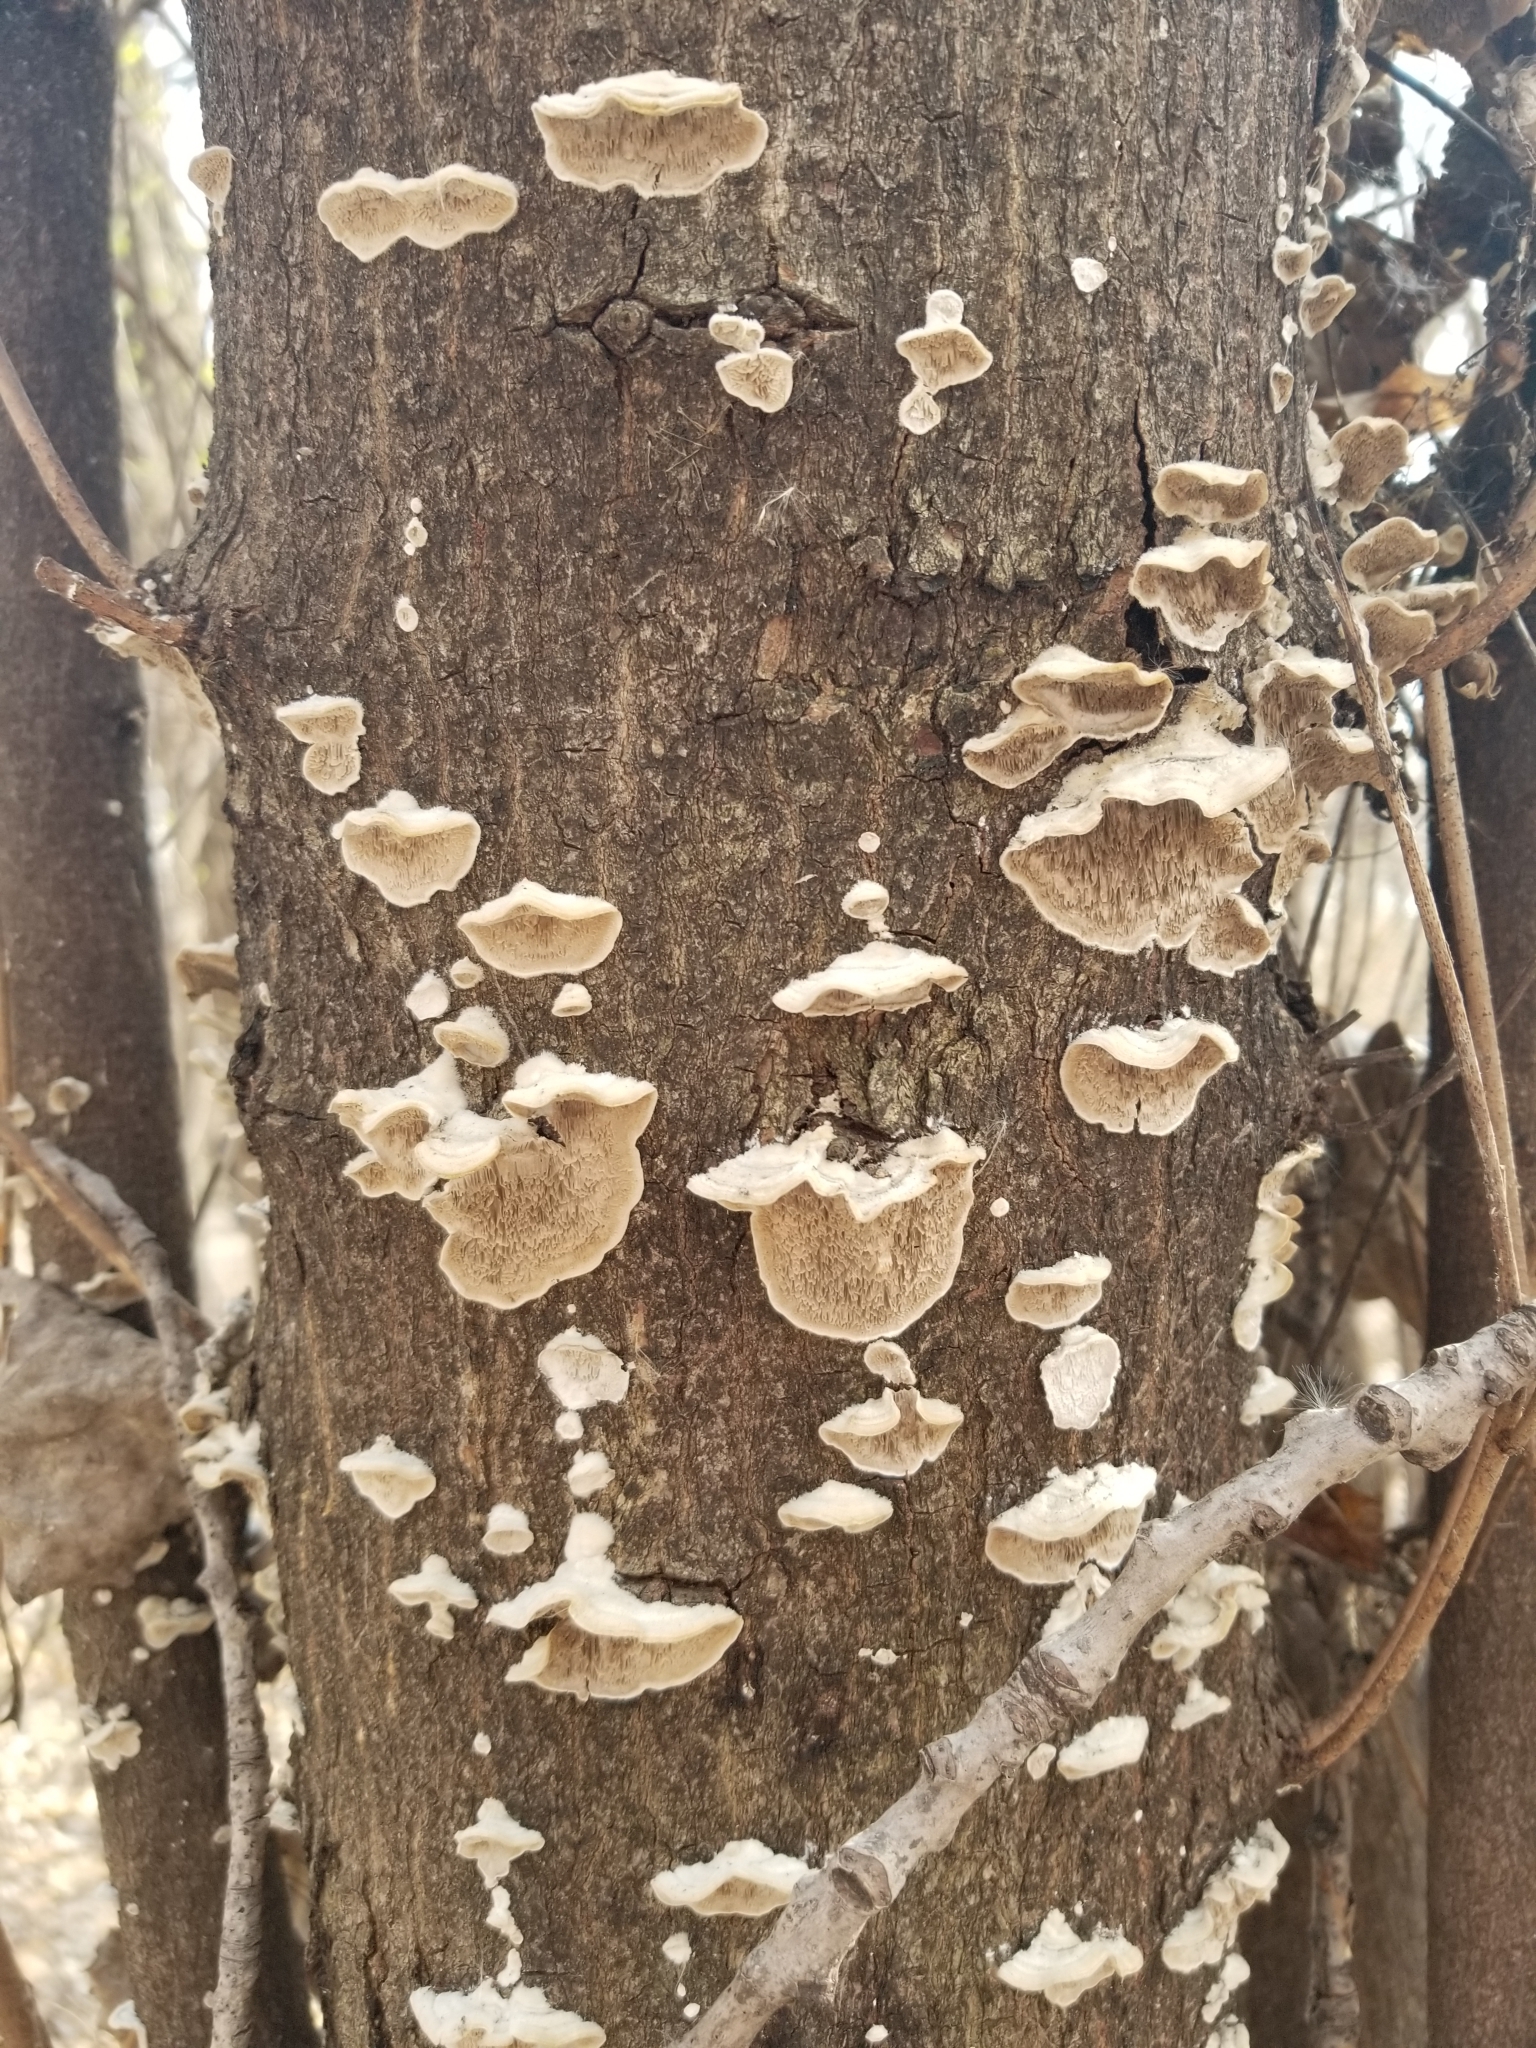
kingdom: Fungi
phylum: Basidiomycota
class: Agaricomycetes
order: Polyporales
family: Irpicaceae
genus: Irpex
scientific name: Irpex lacteus
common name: Milk-white toothed polypore
